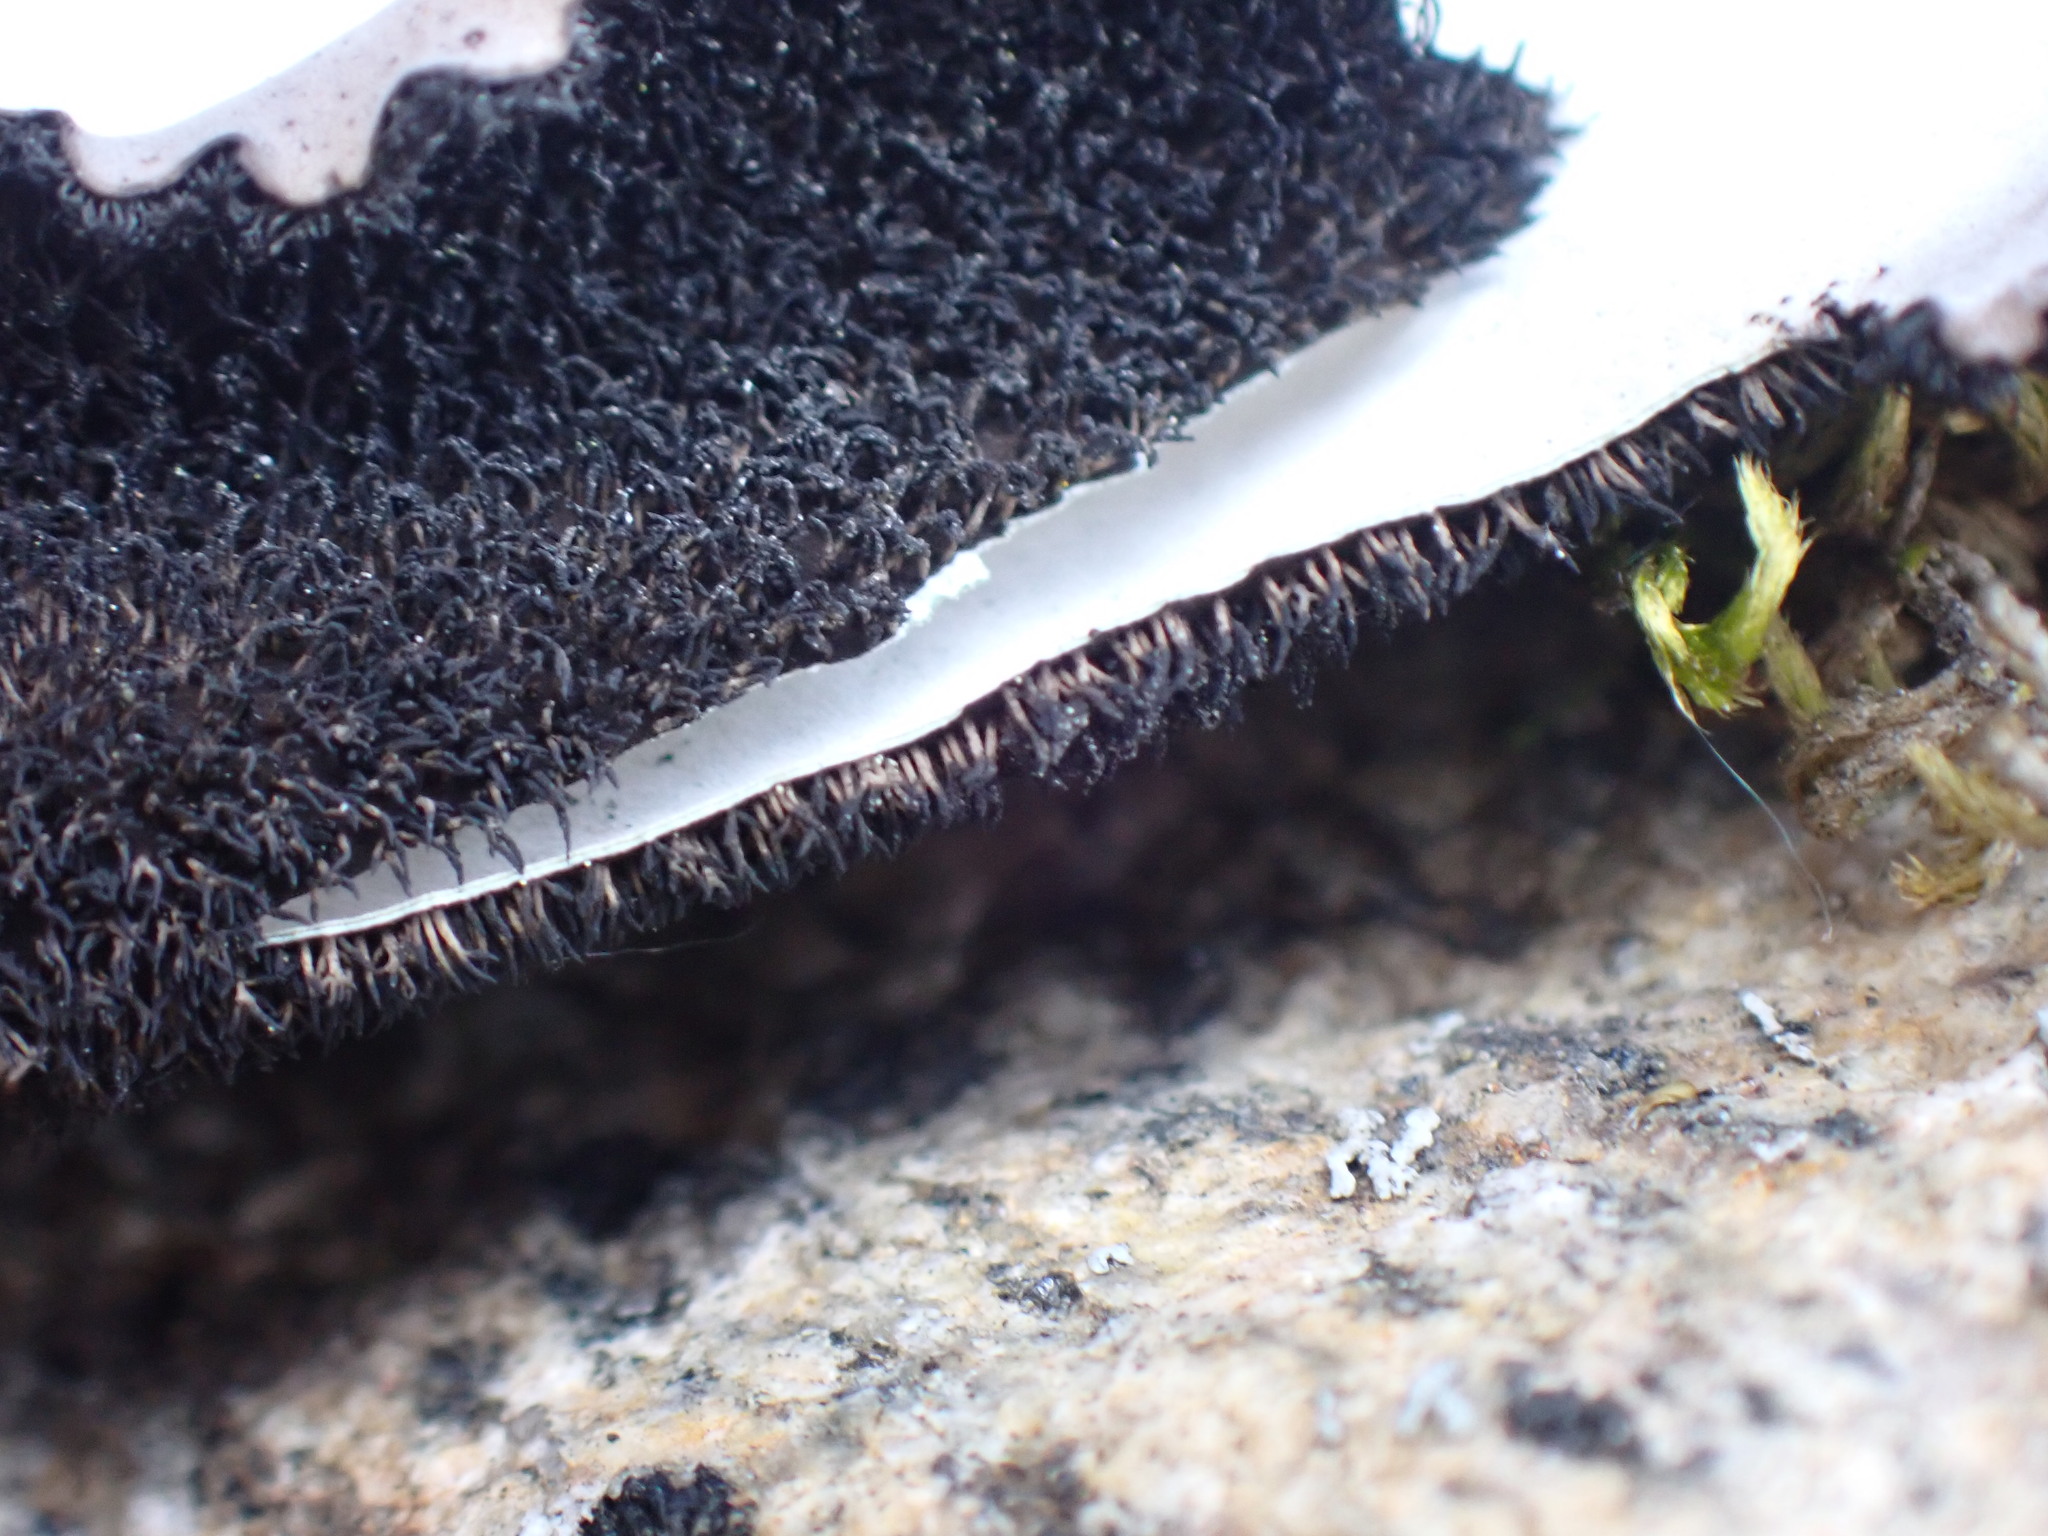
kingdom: Fungi
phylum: Ascomycota
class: Lecanoromycetes
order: Umbilicariales
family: Umbilicariaceae
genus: Umbilicaria
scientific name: Umbilicaria americana
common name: Frosted rock tripe
